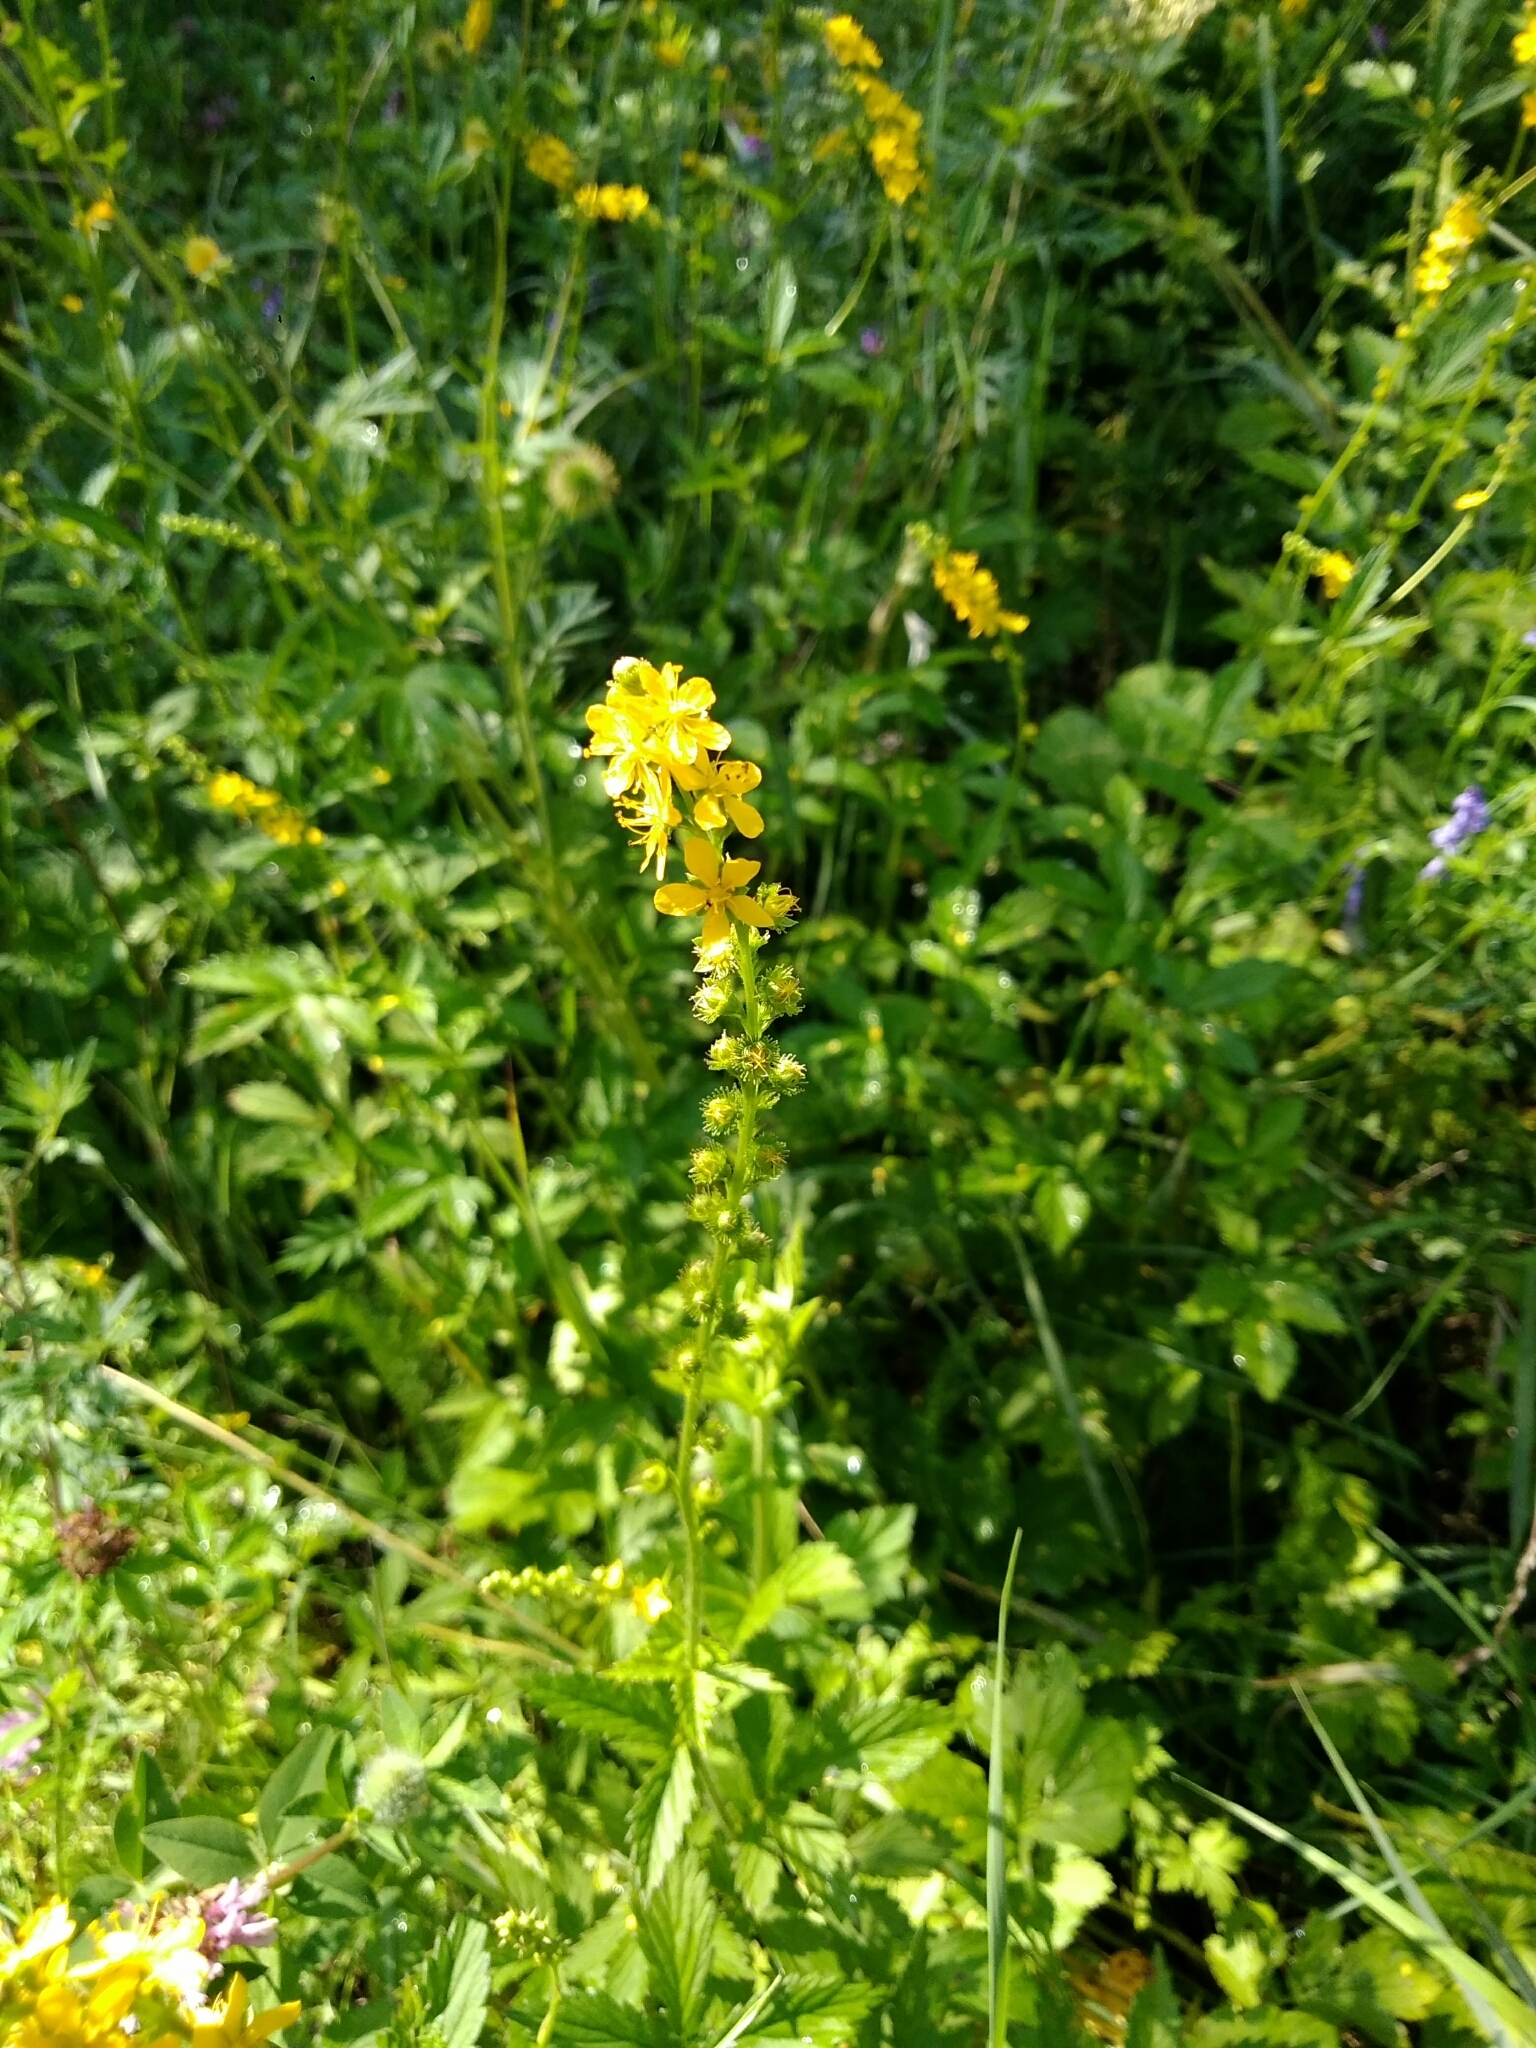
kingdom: Plantae
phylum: Tracheophyta
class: Magnoliopsida
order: Rosales
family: Rosaceae
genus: Agrimonia
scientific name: Agrimonia pilosa
